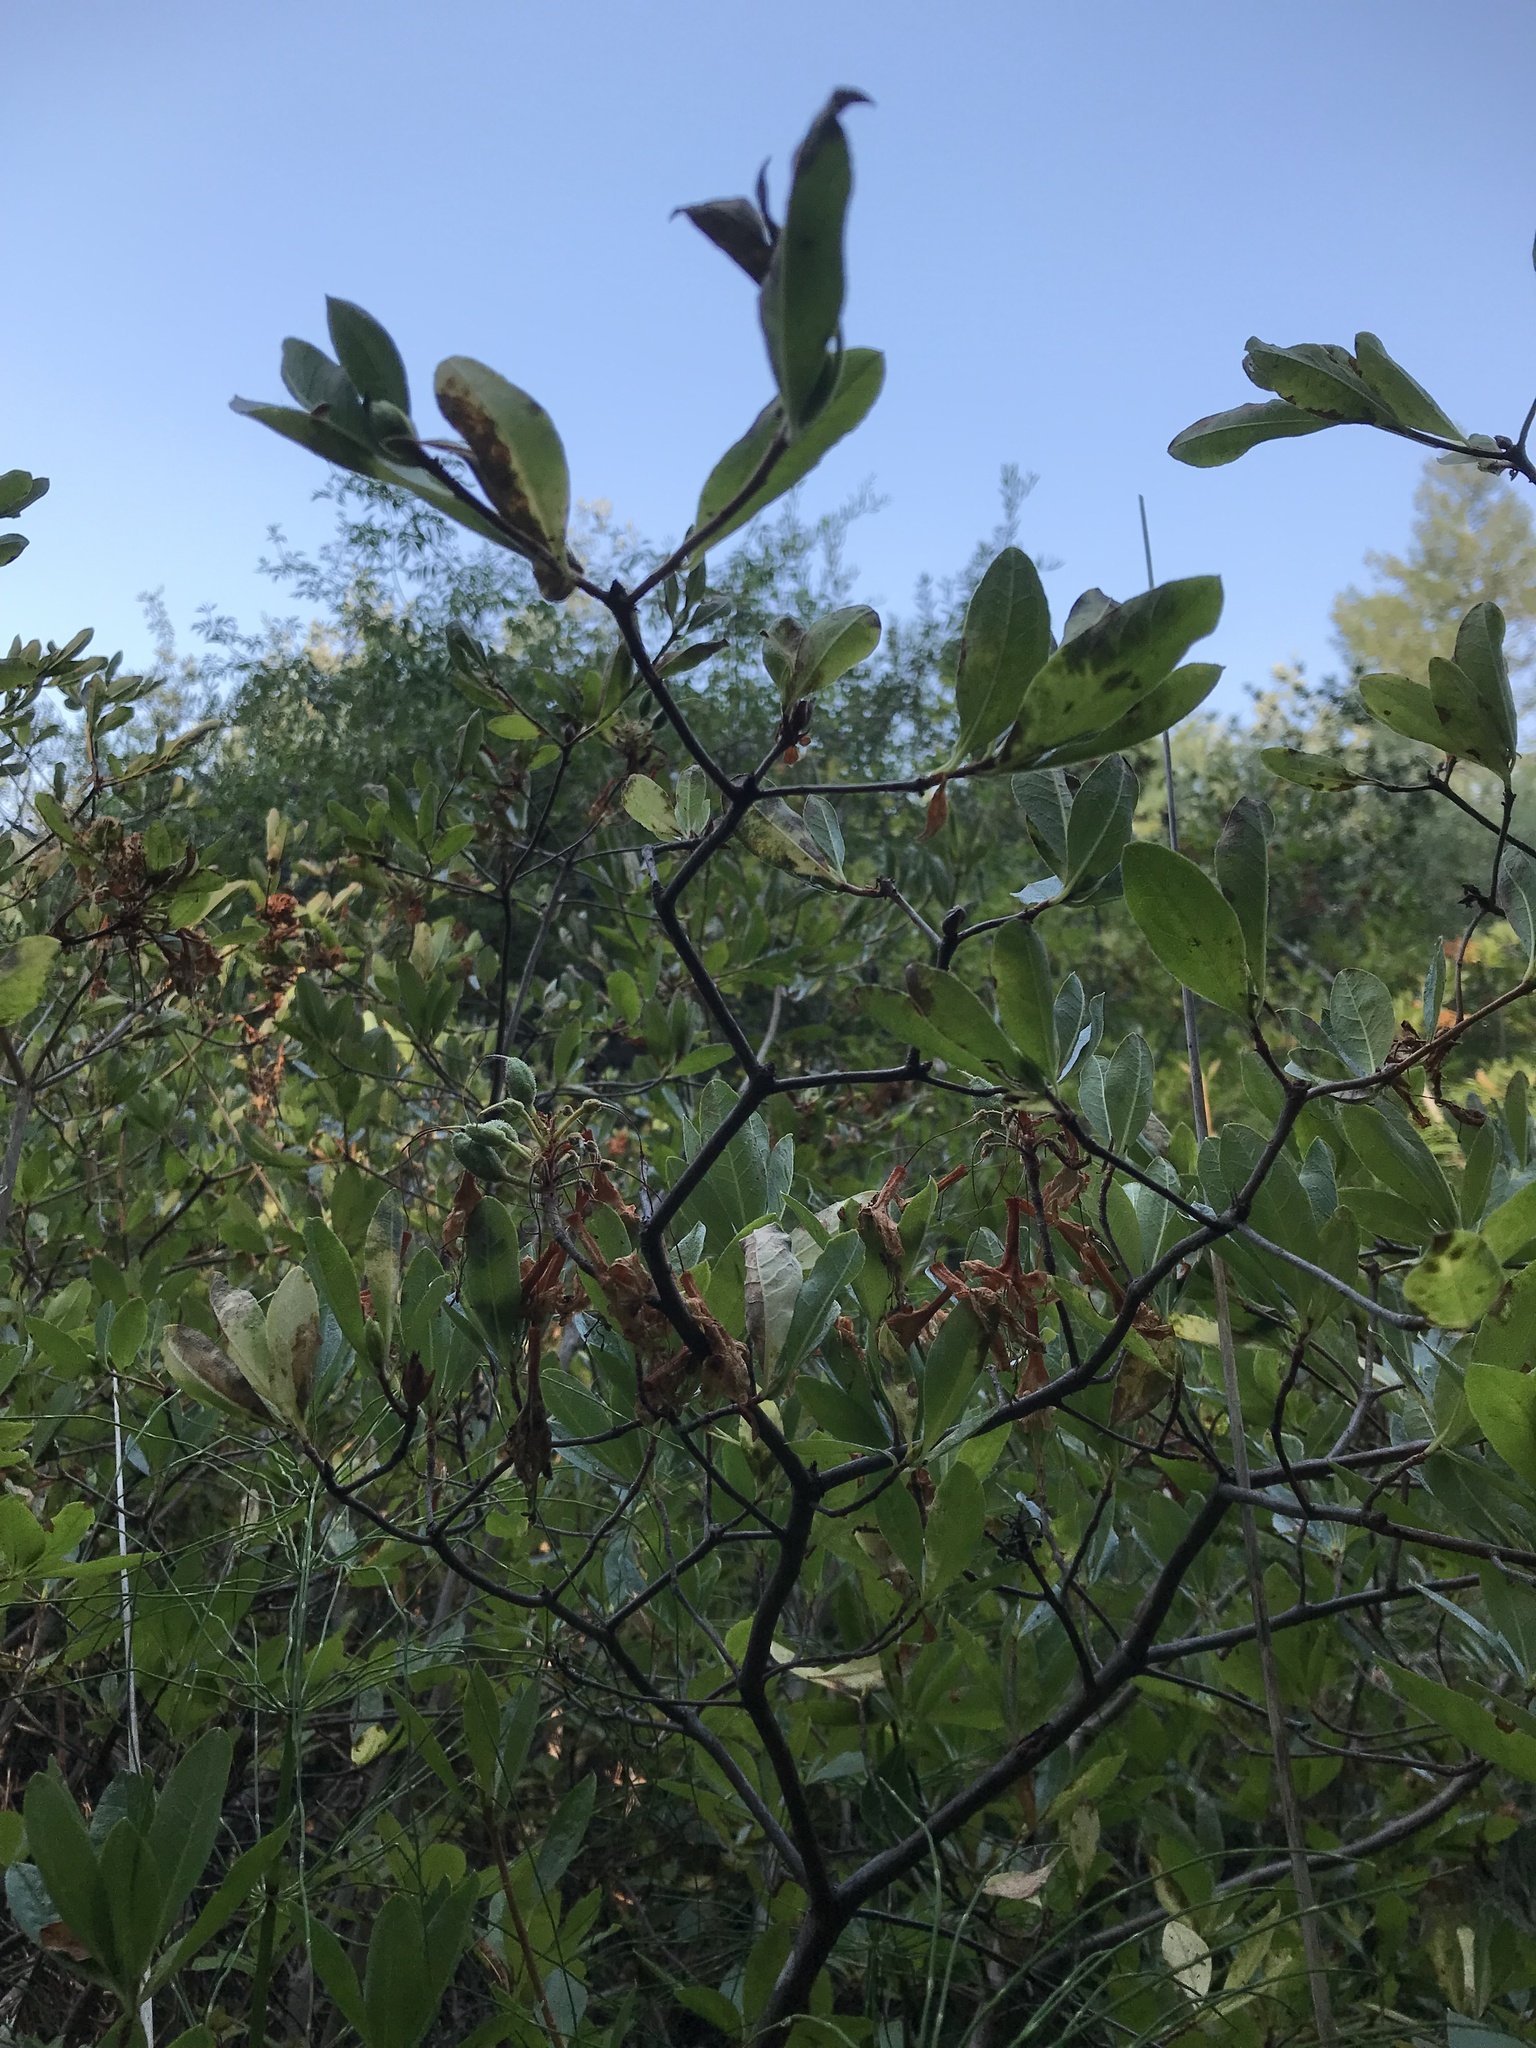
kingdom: Plantae
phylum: Tracheophyta
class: Magnoliopsida
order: Ericales
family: Ericaceae
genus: Rhododendron
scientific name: Rhododendron occidentale
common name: Western azalea
